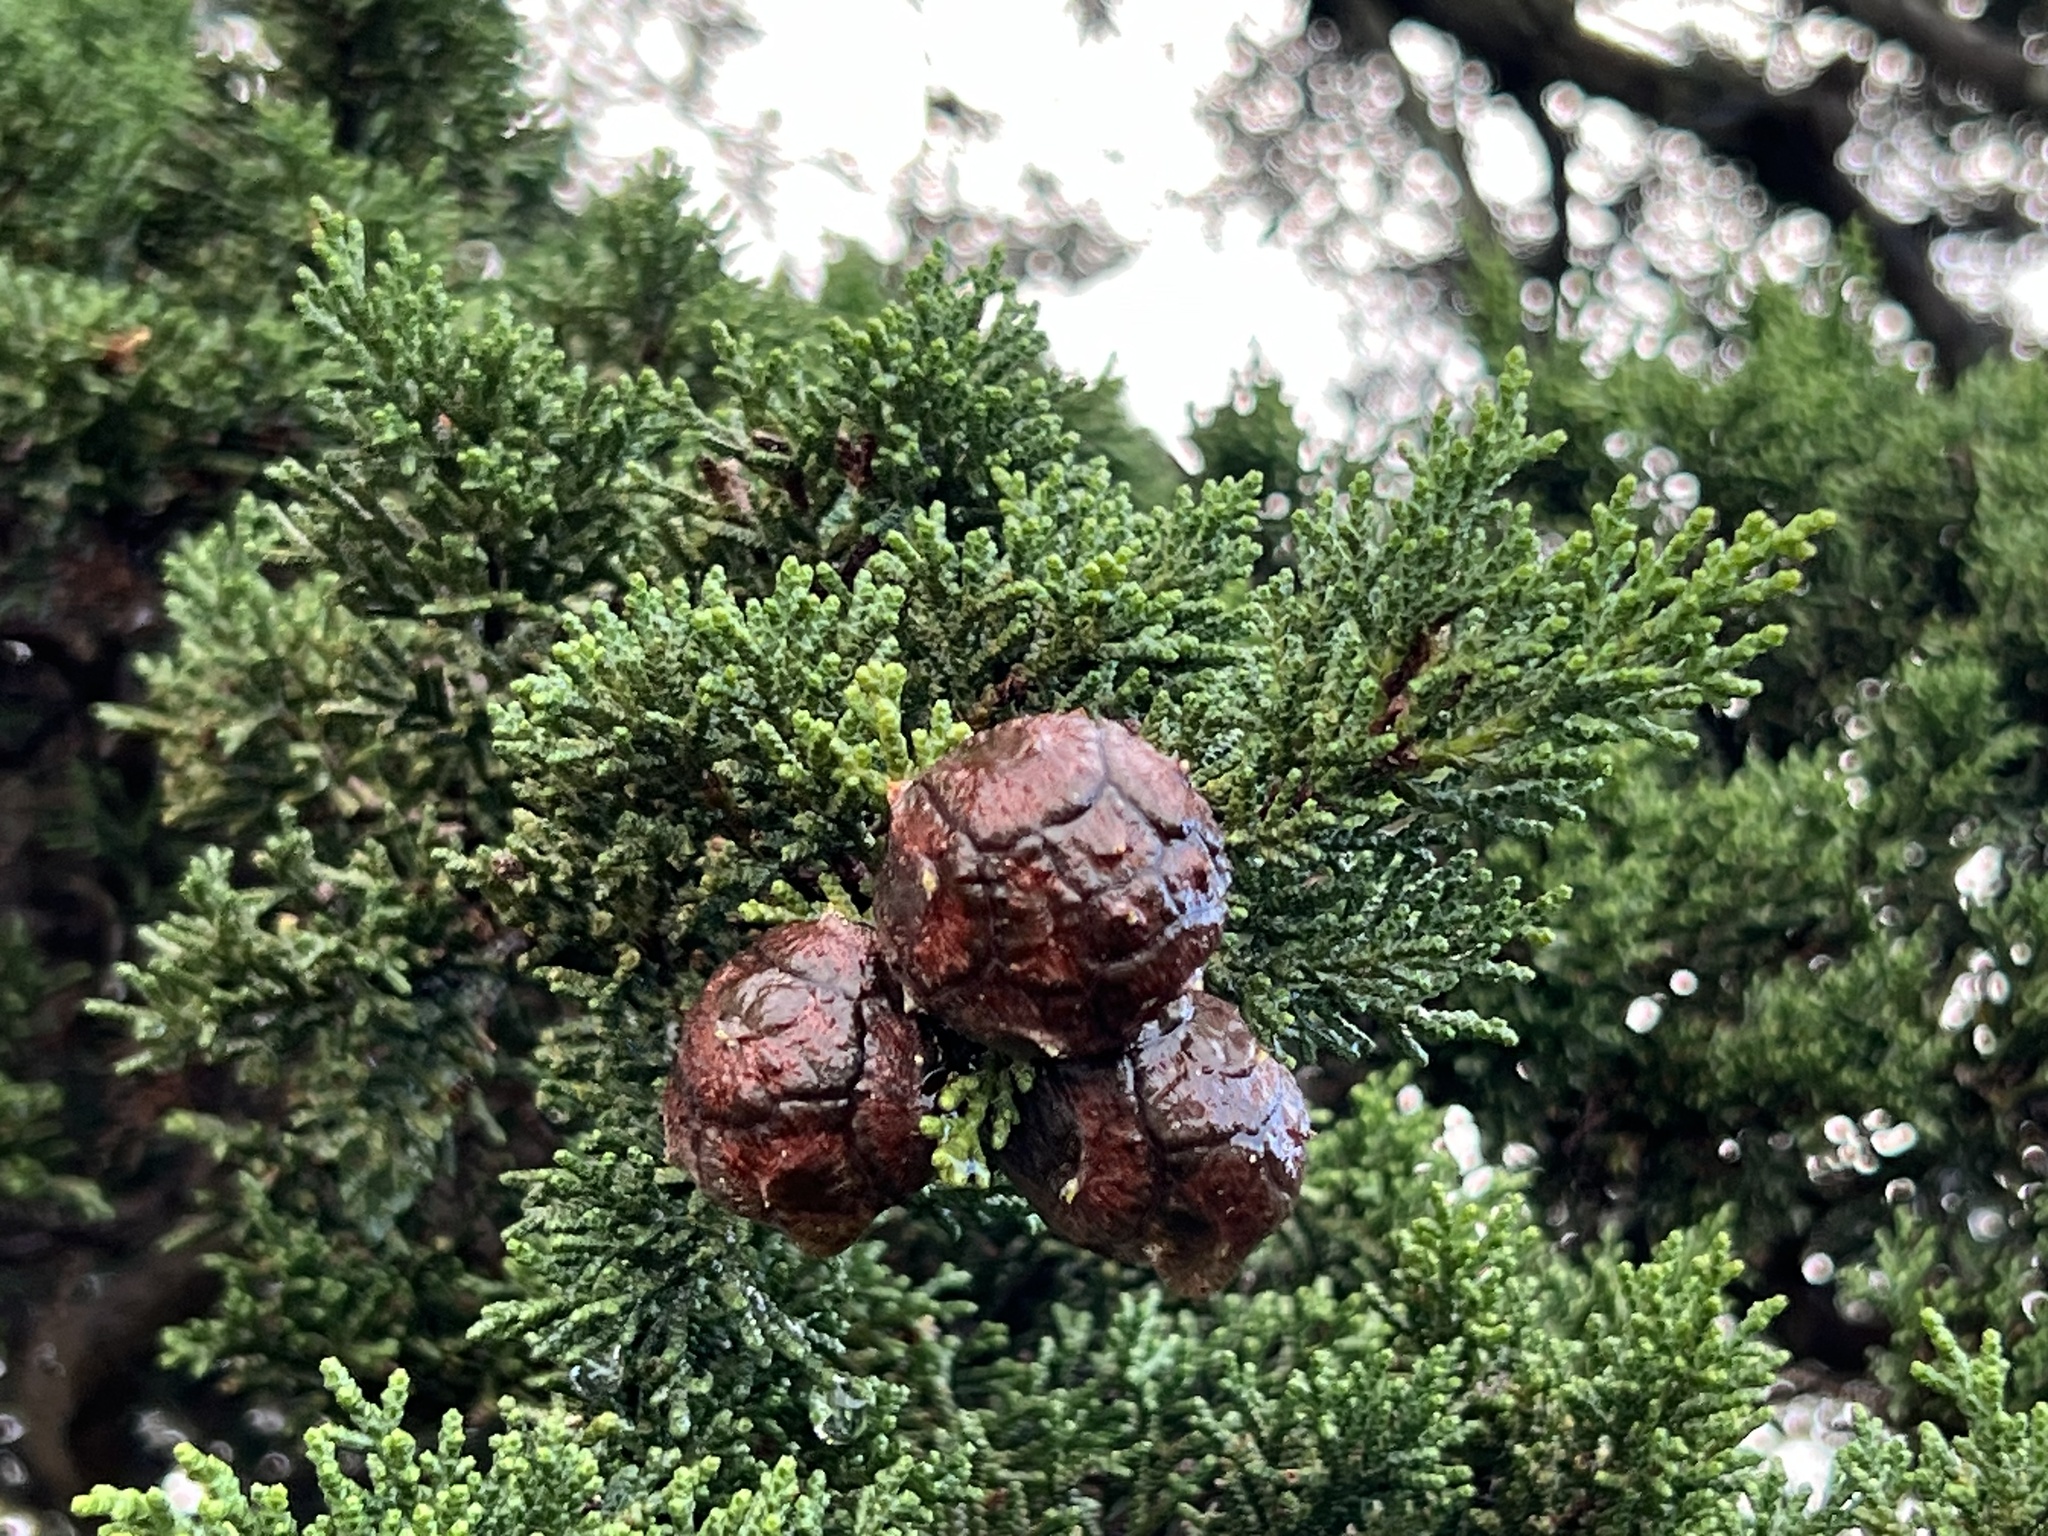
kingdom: Plantae
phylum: Tracheophyta
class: Pinopsida
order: Pinales
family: Cupressaceae
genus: Cupressus
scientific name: Cupressus macrocarpa
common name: Monterey cypress
